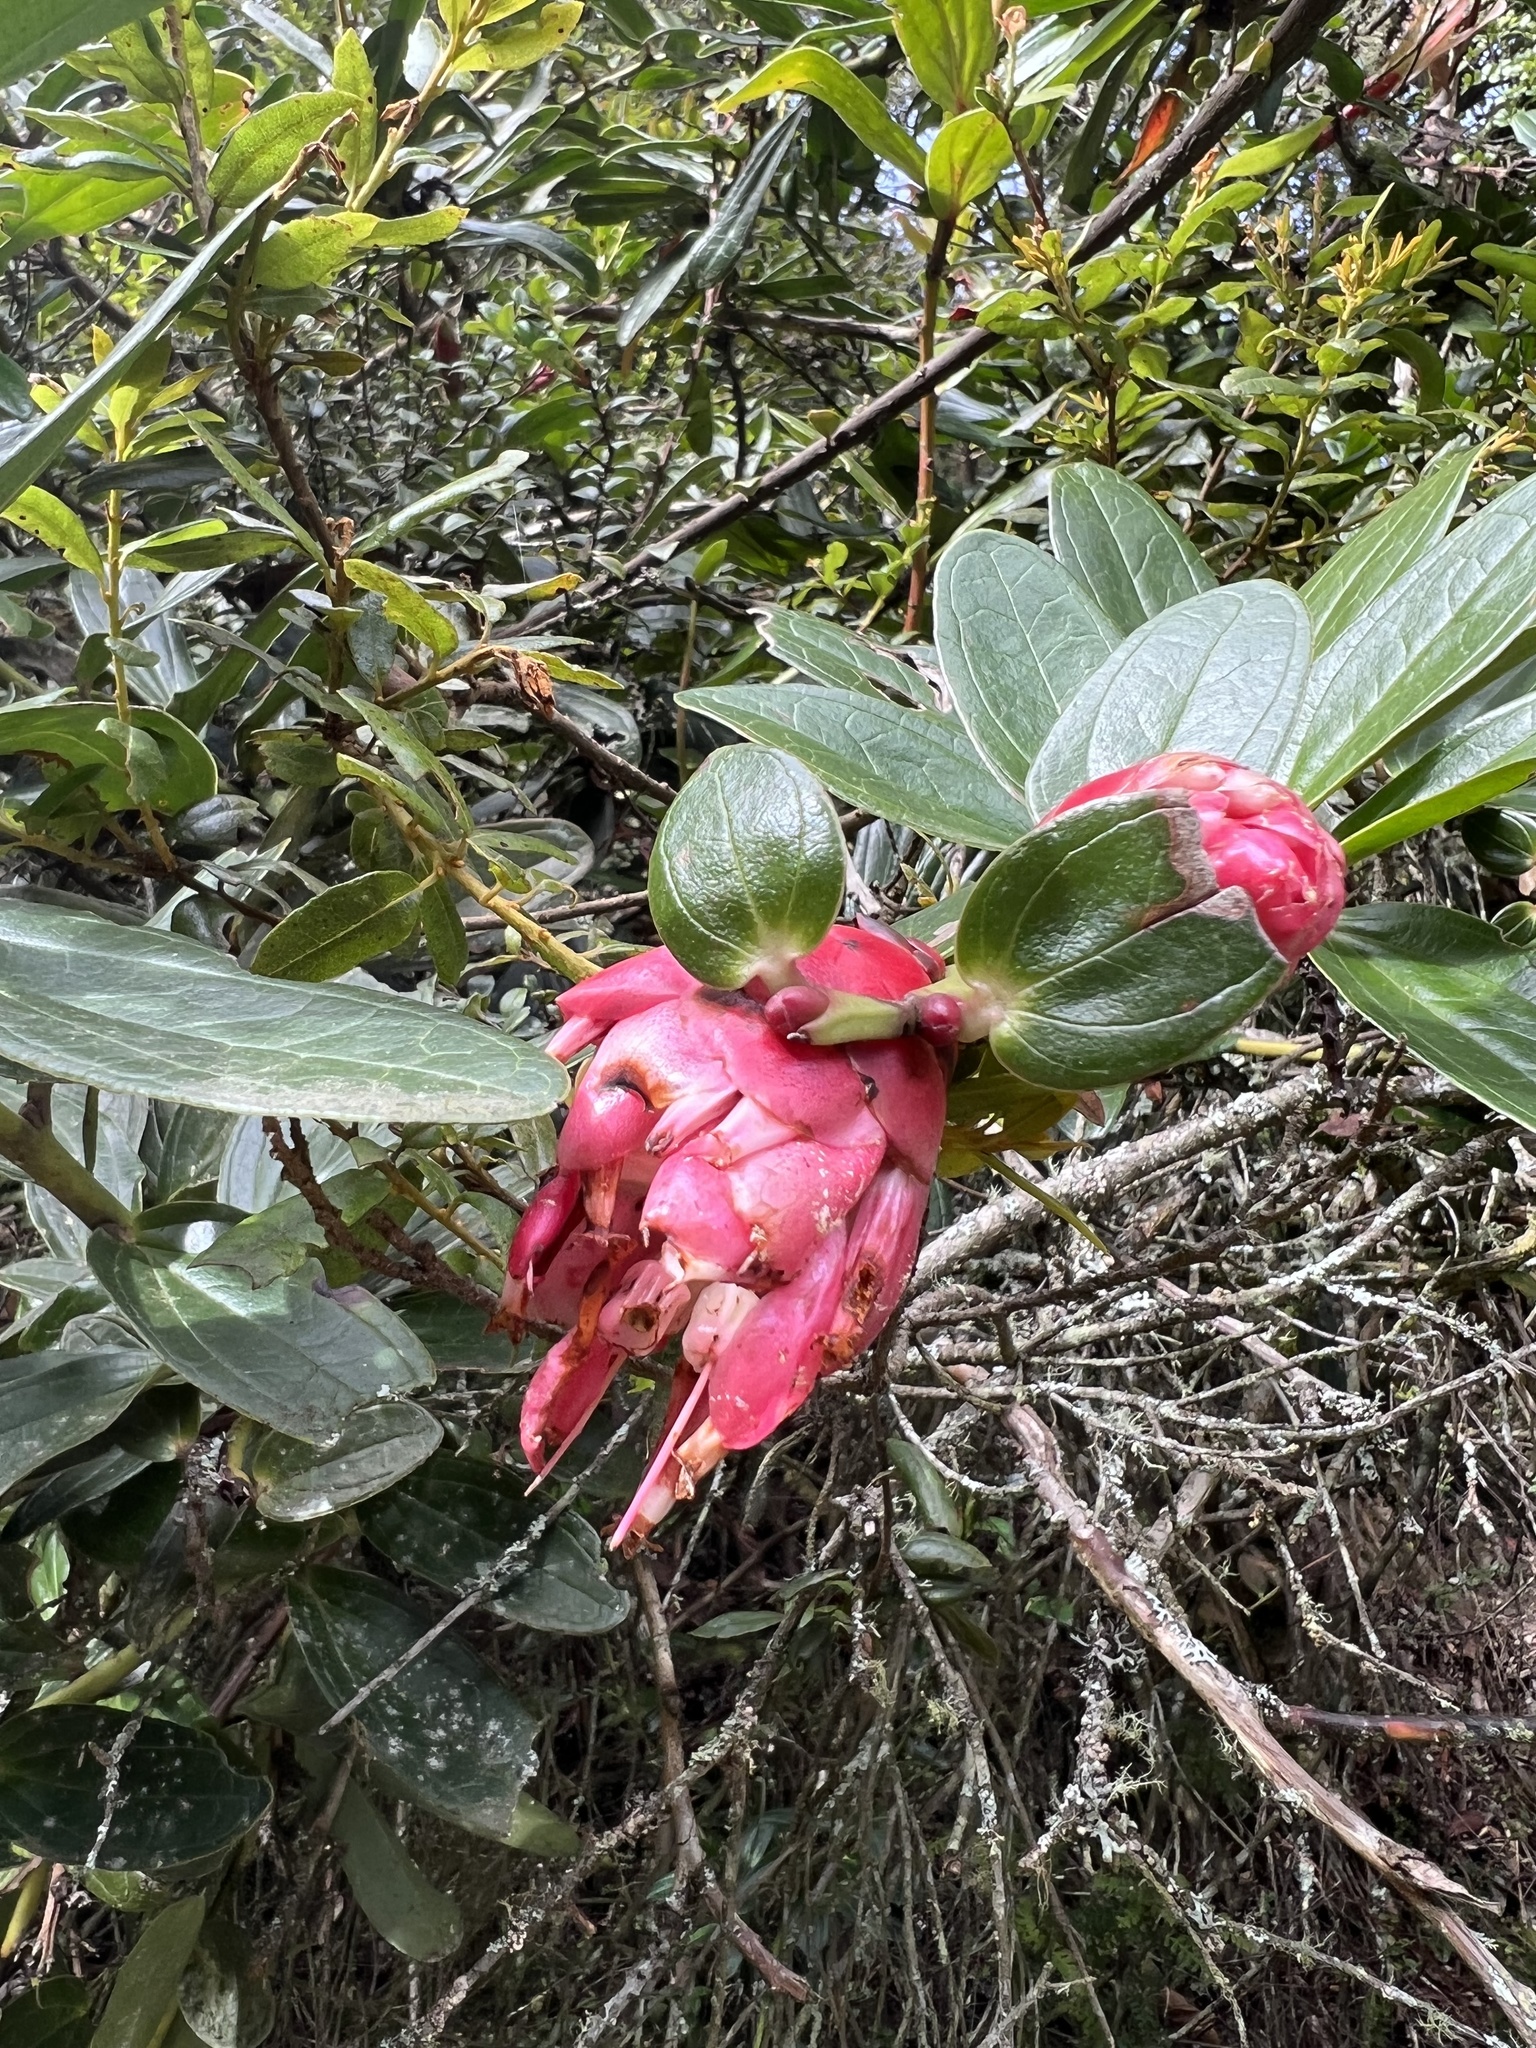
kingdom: Plantae
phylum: Tracheophyta
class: Magnoliopsida
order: Ericales
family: Ericaceae
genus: Cavendishia
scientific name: Cavendishia bracteata
